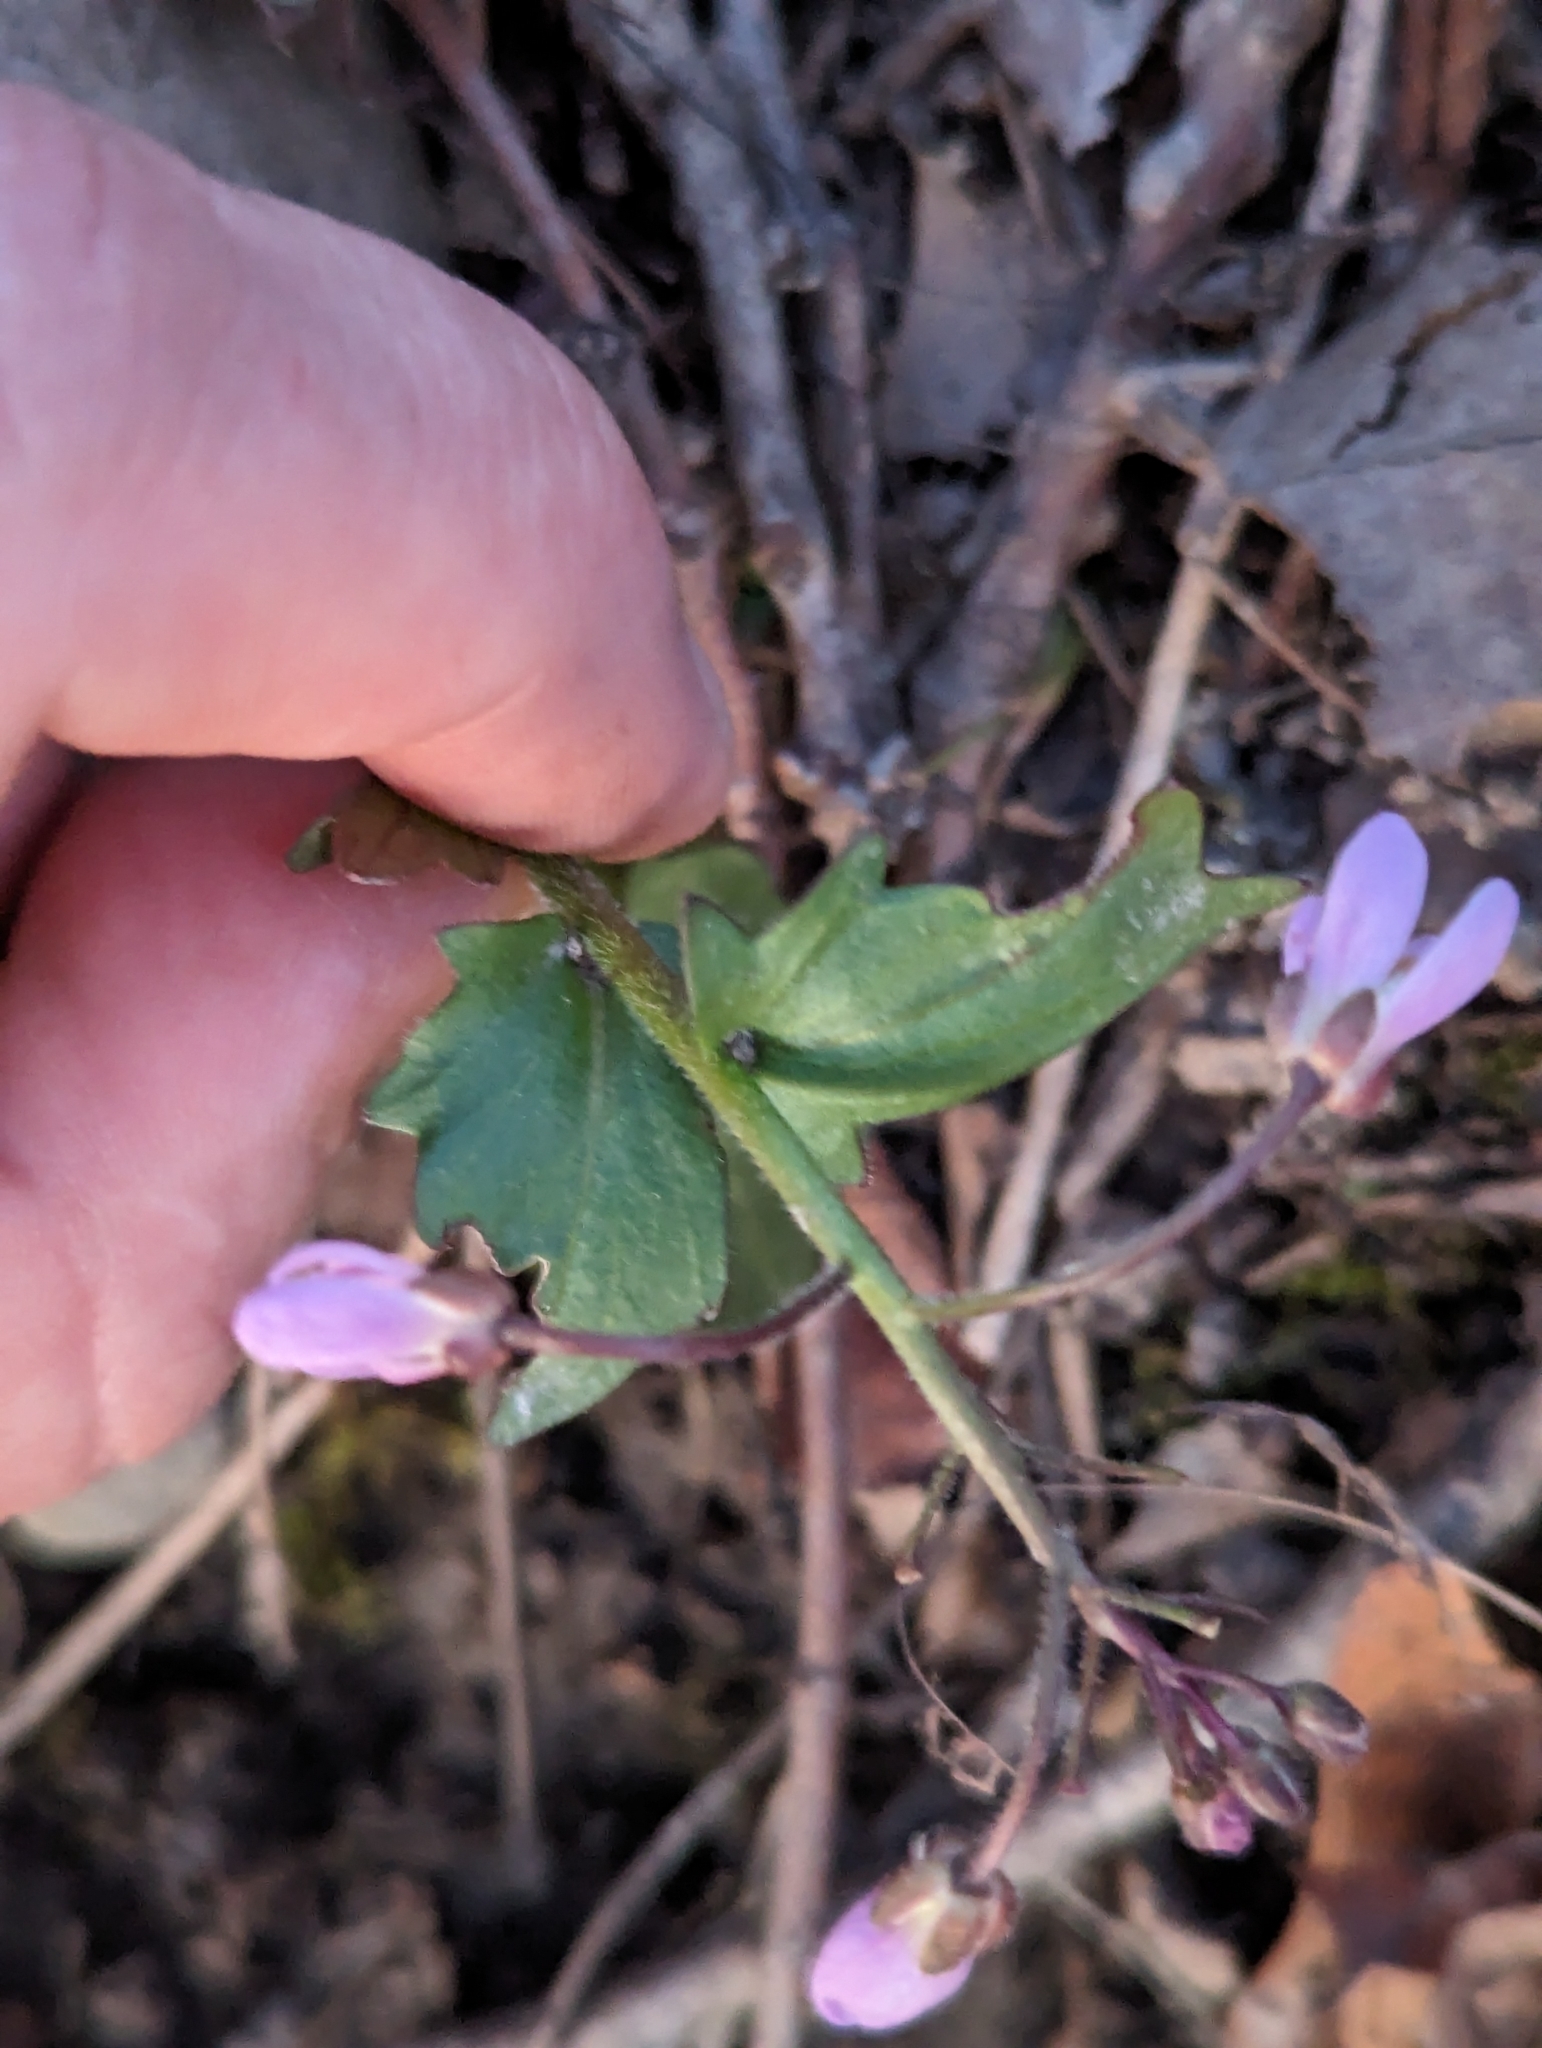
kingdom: Plantae
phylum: Tracheophyta
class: Magnoliopsida
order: Brassicales
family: Brassicaceae
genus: Cardamine
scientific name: Cardamine douglassii
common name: Purple cress
